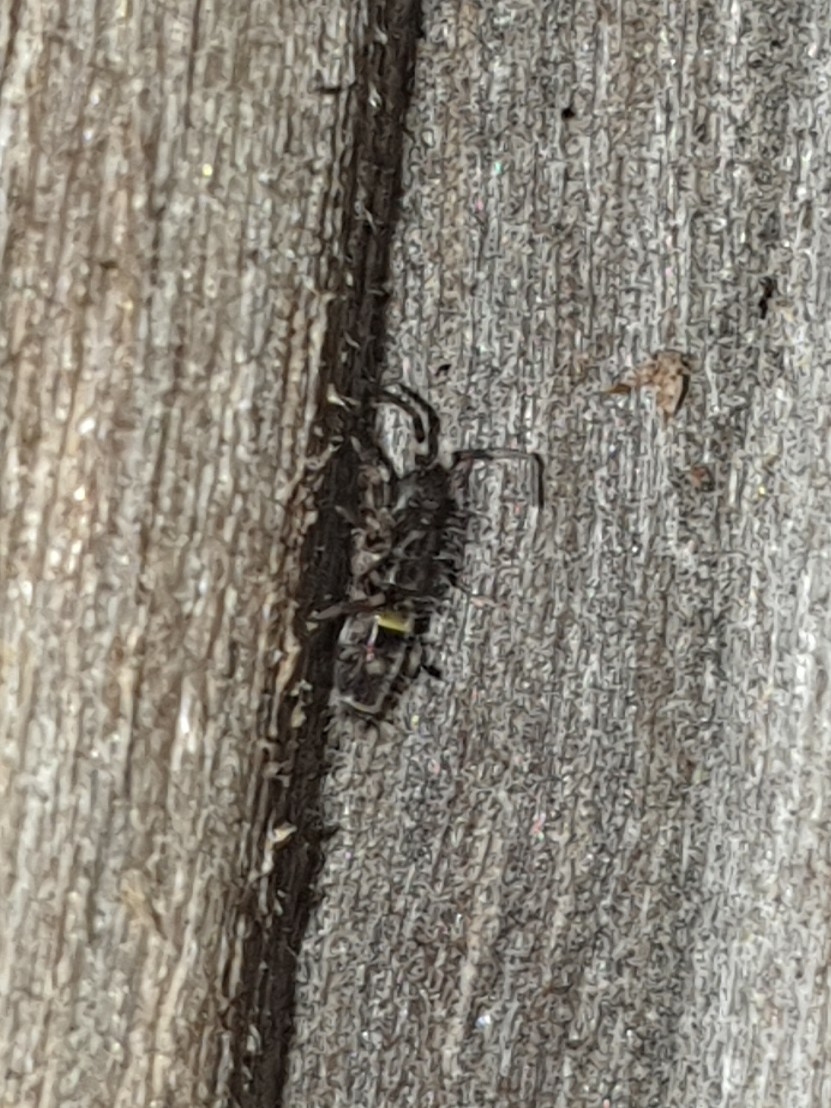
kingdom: Animalia
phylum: Arthropoda
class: Collembola
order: Entomobryomorpha
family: Orchesellidae
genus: Orchesella
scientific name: Orchesella cincta
